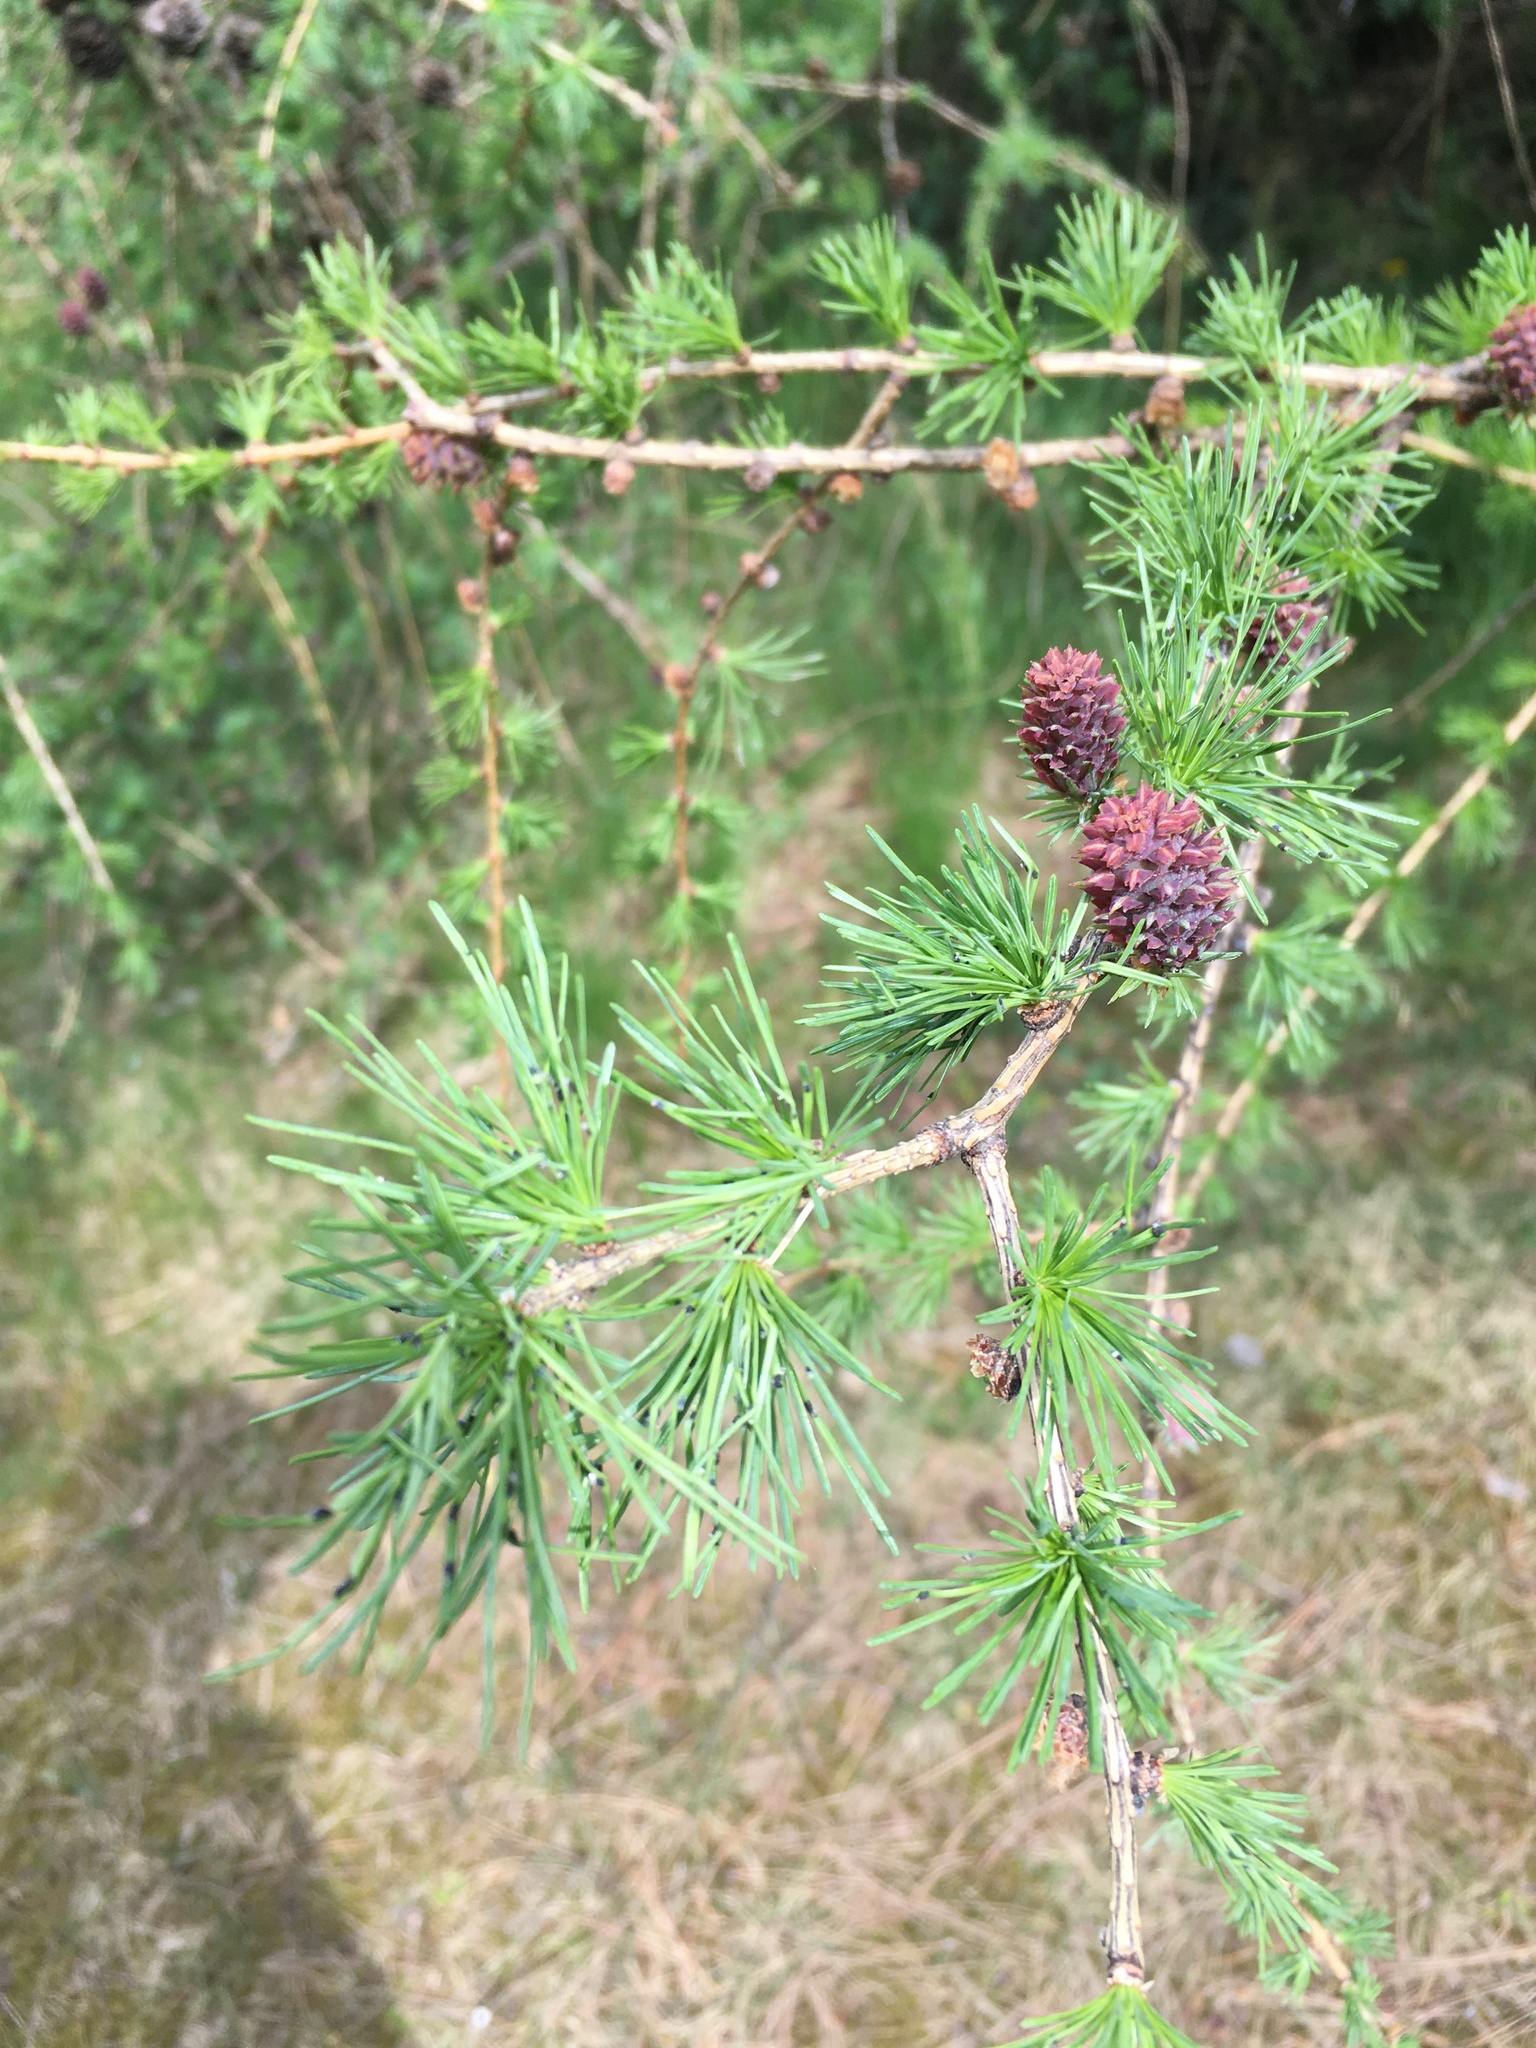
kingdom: Plantae
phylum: Tracheophyta
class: Pinopsida
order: Pinales
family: Pinaceae
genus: Larix
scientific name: Larix decidua
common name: European larch
